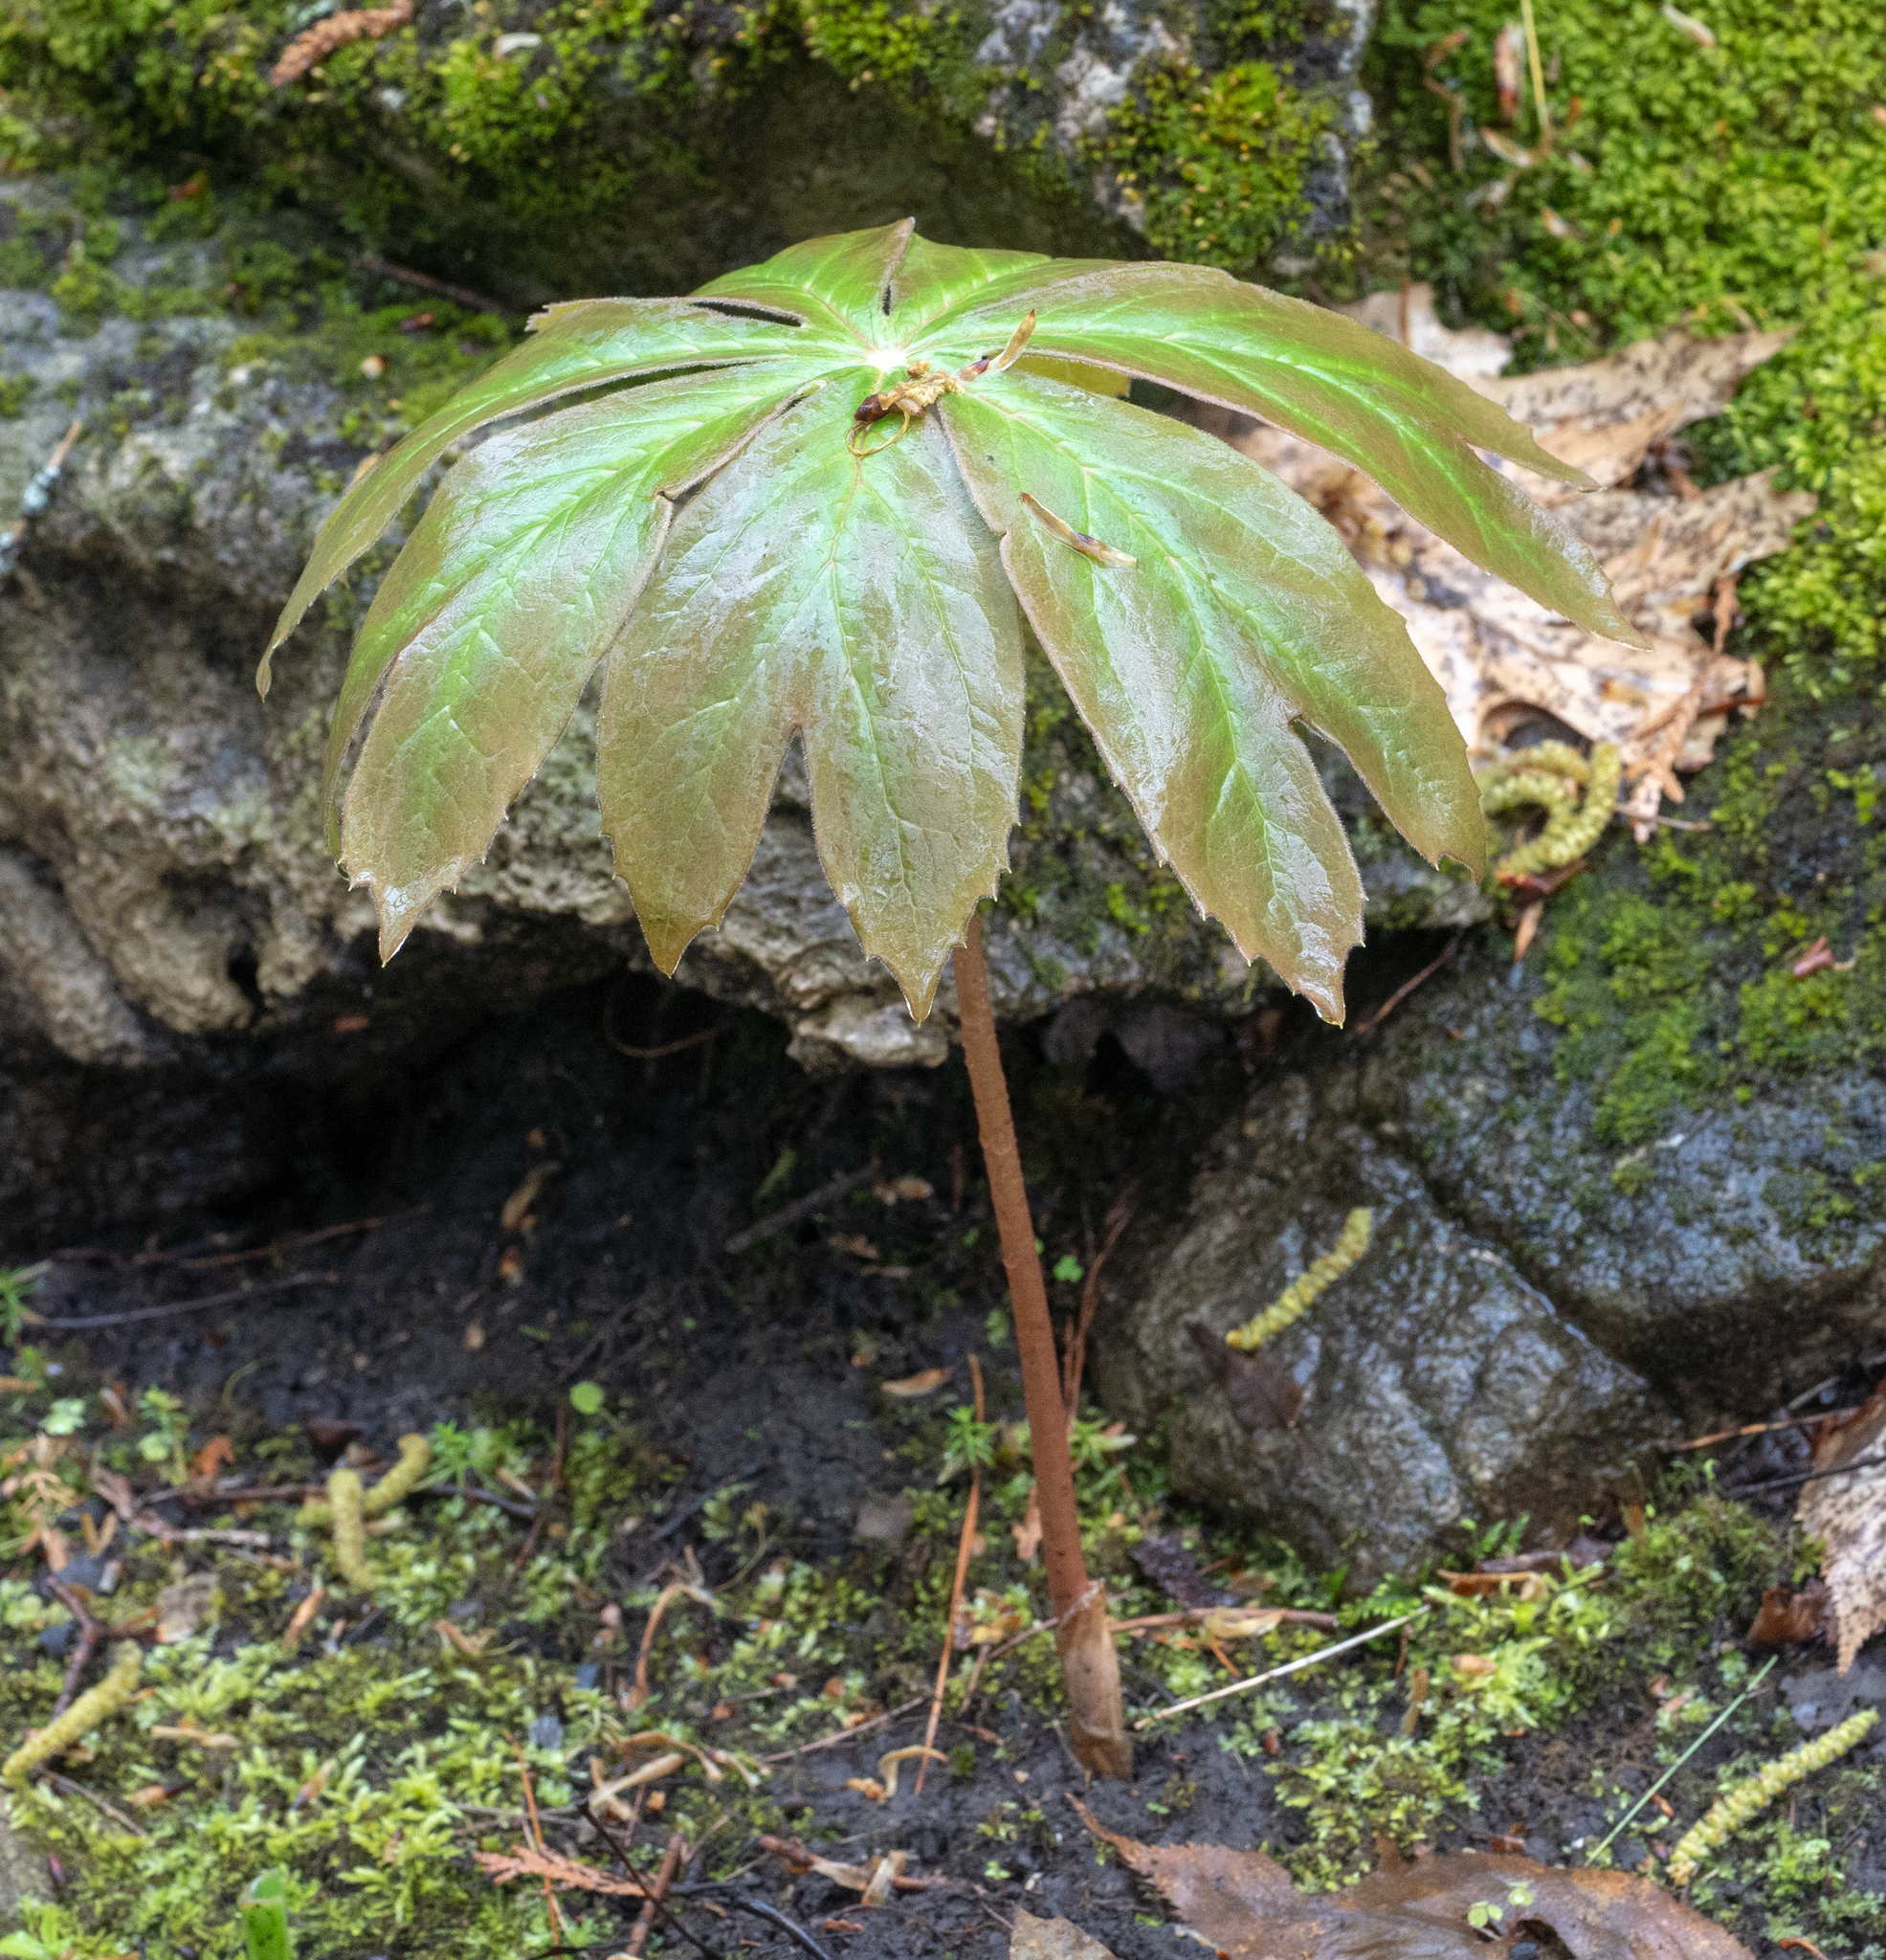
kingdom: Plantae
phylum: Tracheophyta
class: Magnoliopsida
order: Ranunculales
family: Berberidaceae
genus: Podophyllum
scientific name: Podophyllum peltatum
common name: Wild mandrake
